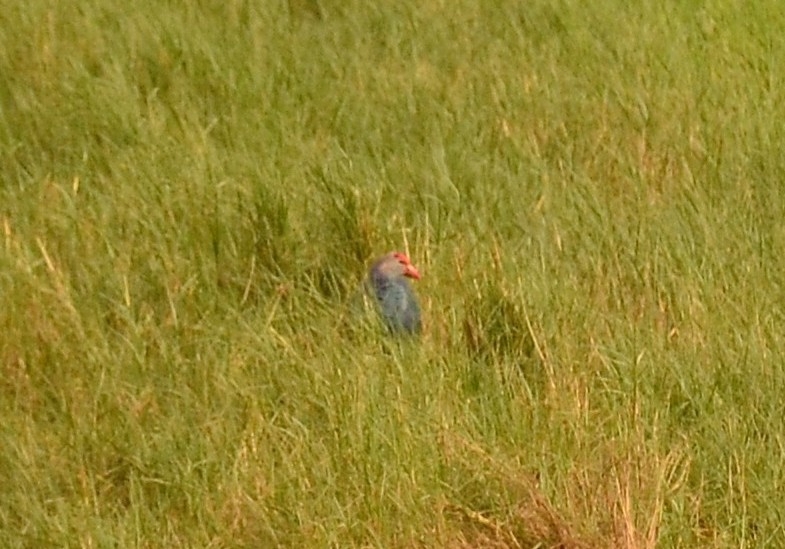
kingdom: Animalia
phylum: Chordata
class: Aves
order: Gruiformes
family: Rallidae
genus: Porphyrio
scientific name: Porphyrio porphyrio
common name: Purple swamphen
